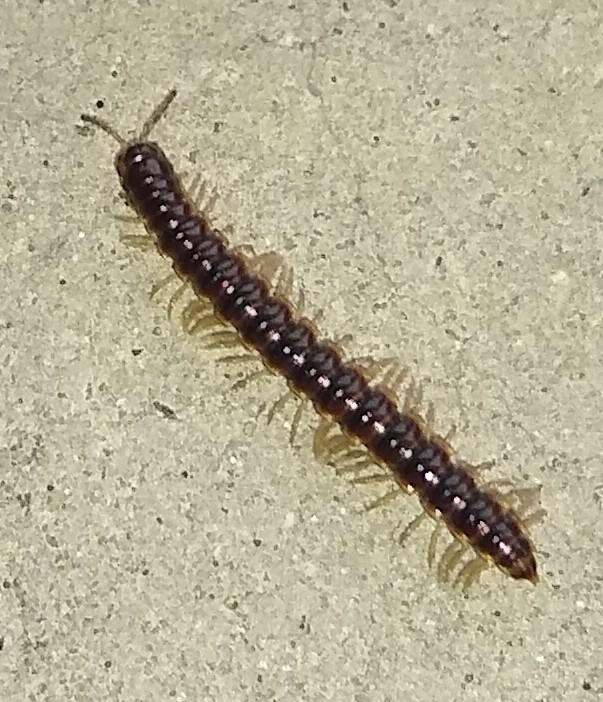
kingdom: Animalia
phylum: Arthropoda
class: Diplopoda
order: Polydesmida
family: Paradoxosomatidae
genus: Oxidus
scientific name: Oxidus gracilis
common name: Greenhouse millipede
